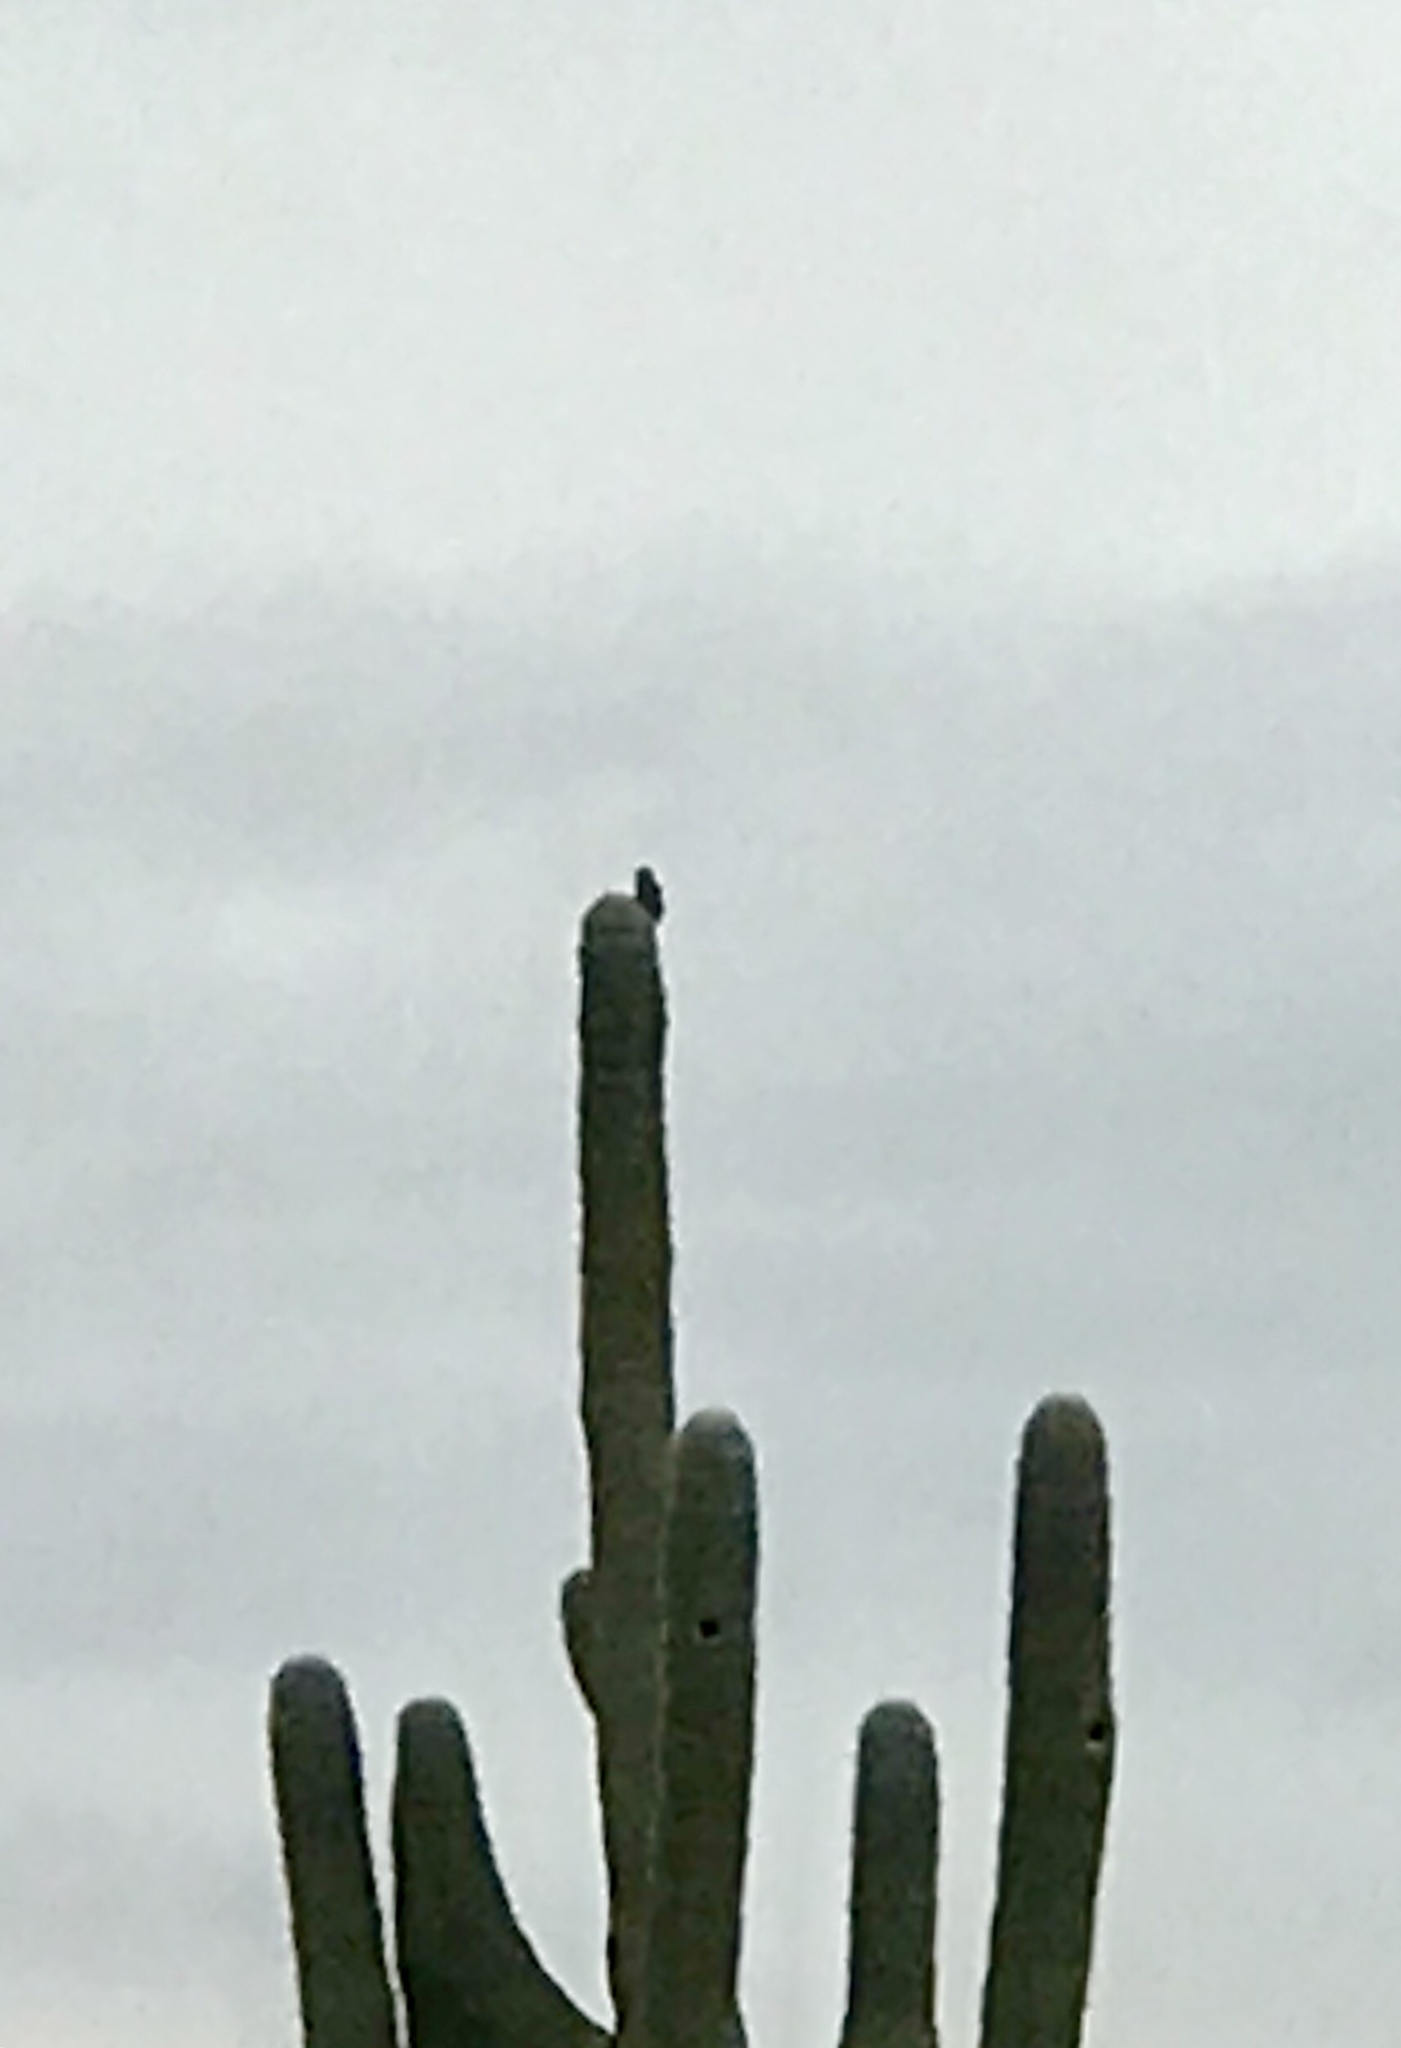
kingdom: Animalia
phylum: Chordata
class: Aves
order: Piciformes
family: Picidae
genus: Melanerpes
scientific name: Melanerpes uropygialis
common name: Gila woodpecker
